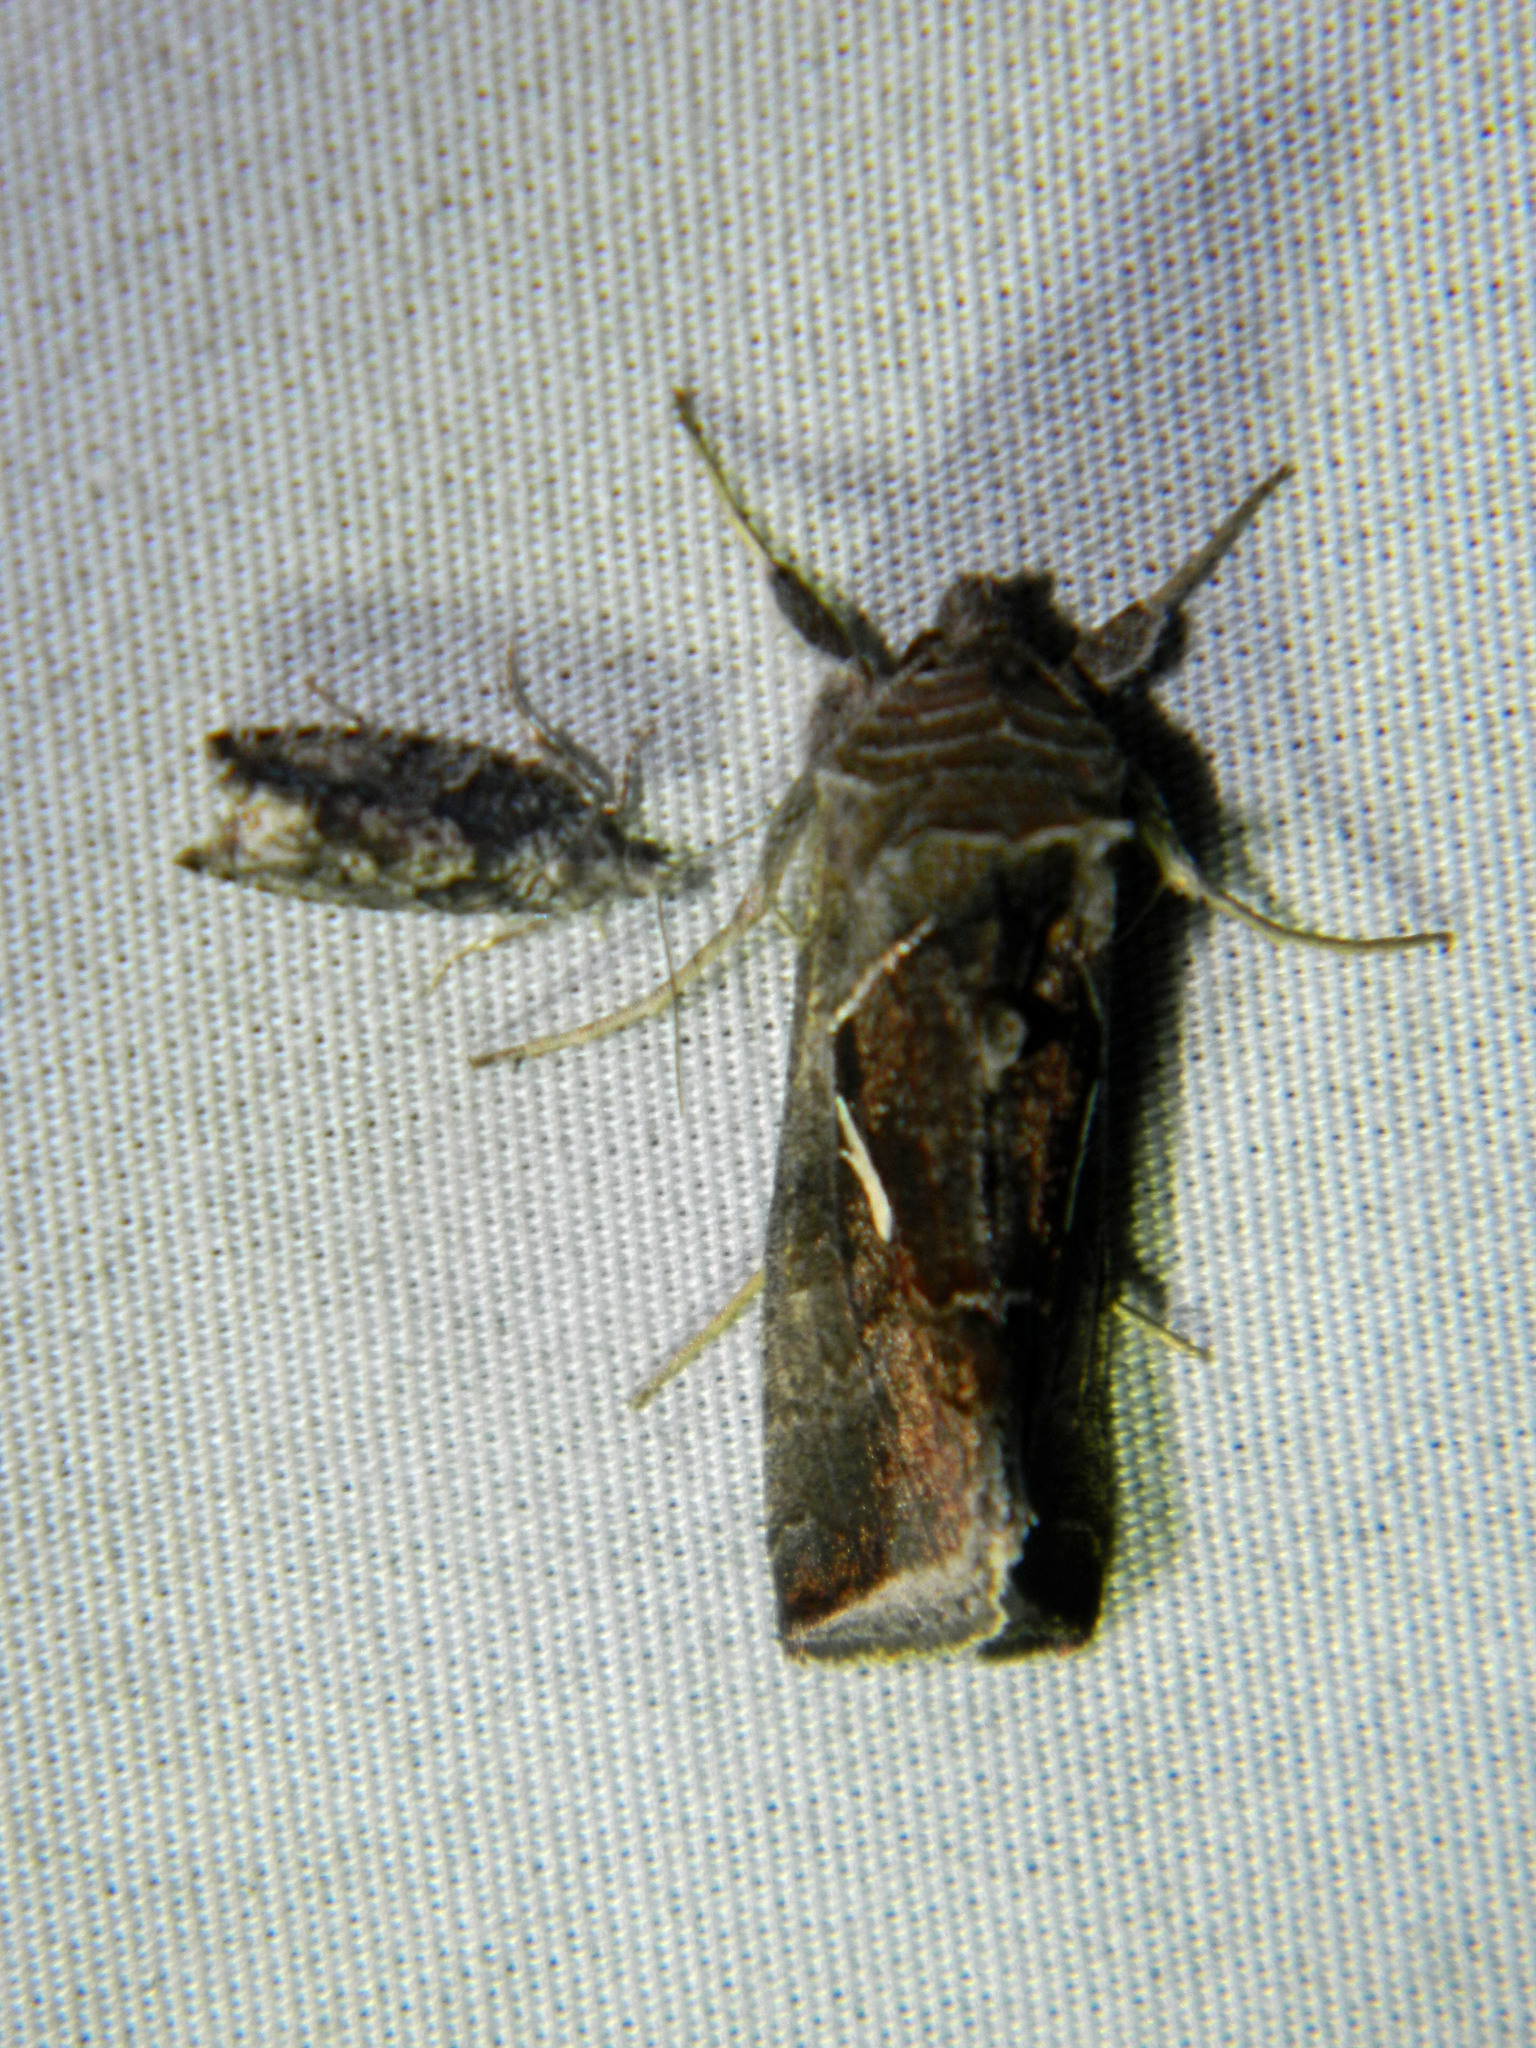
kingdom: Animalia
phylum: Arthropoda
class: Insecta
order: Lepidoptera
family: Noctuidae
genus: Anagrapha
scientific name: Anagrapha falcifera
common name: Celery looper
